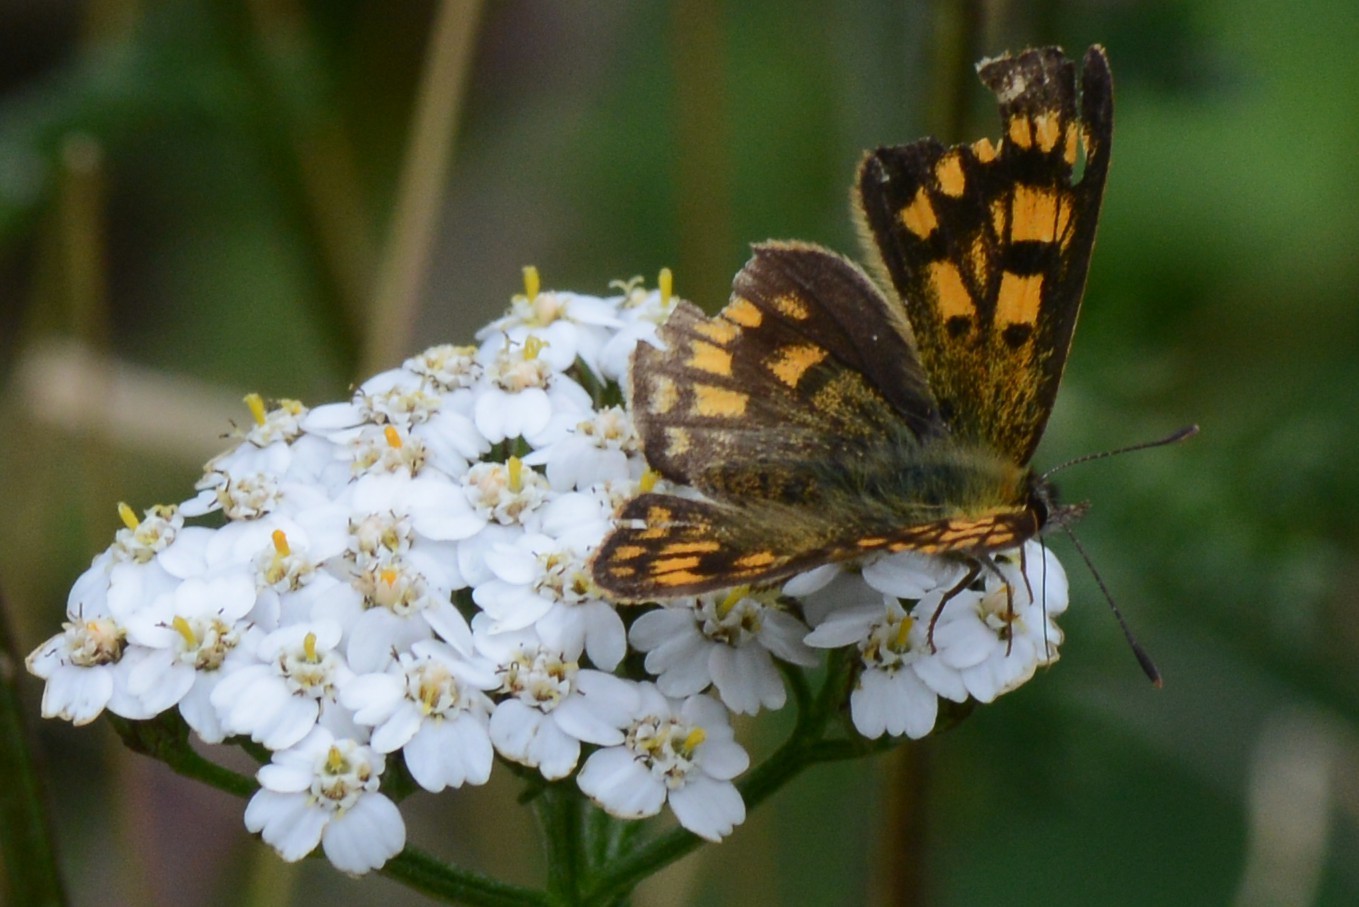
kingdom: Animalia
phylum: Arthropoda
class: Insecta
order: Lepidoptera
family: Lycaenidae
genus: Lycaena
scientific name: Lycaena feredayi
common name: Glade copper
